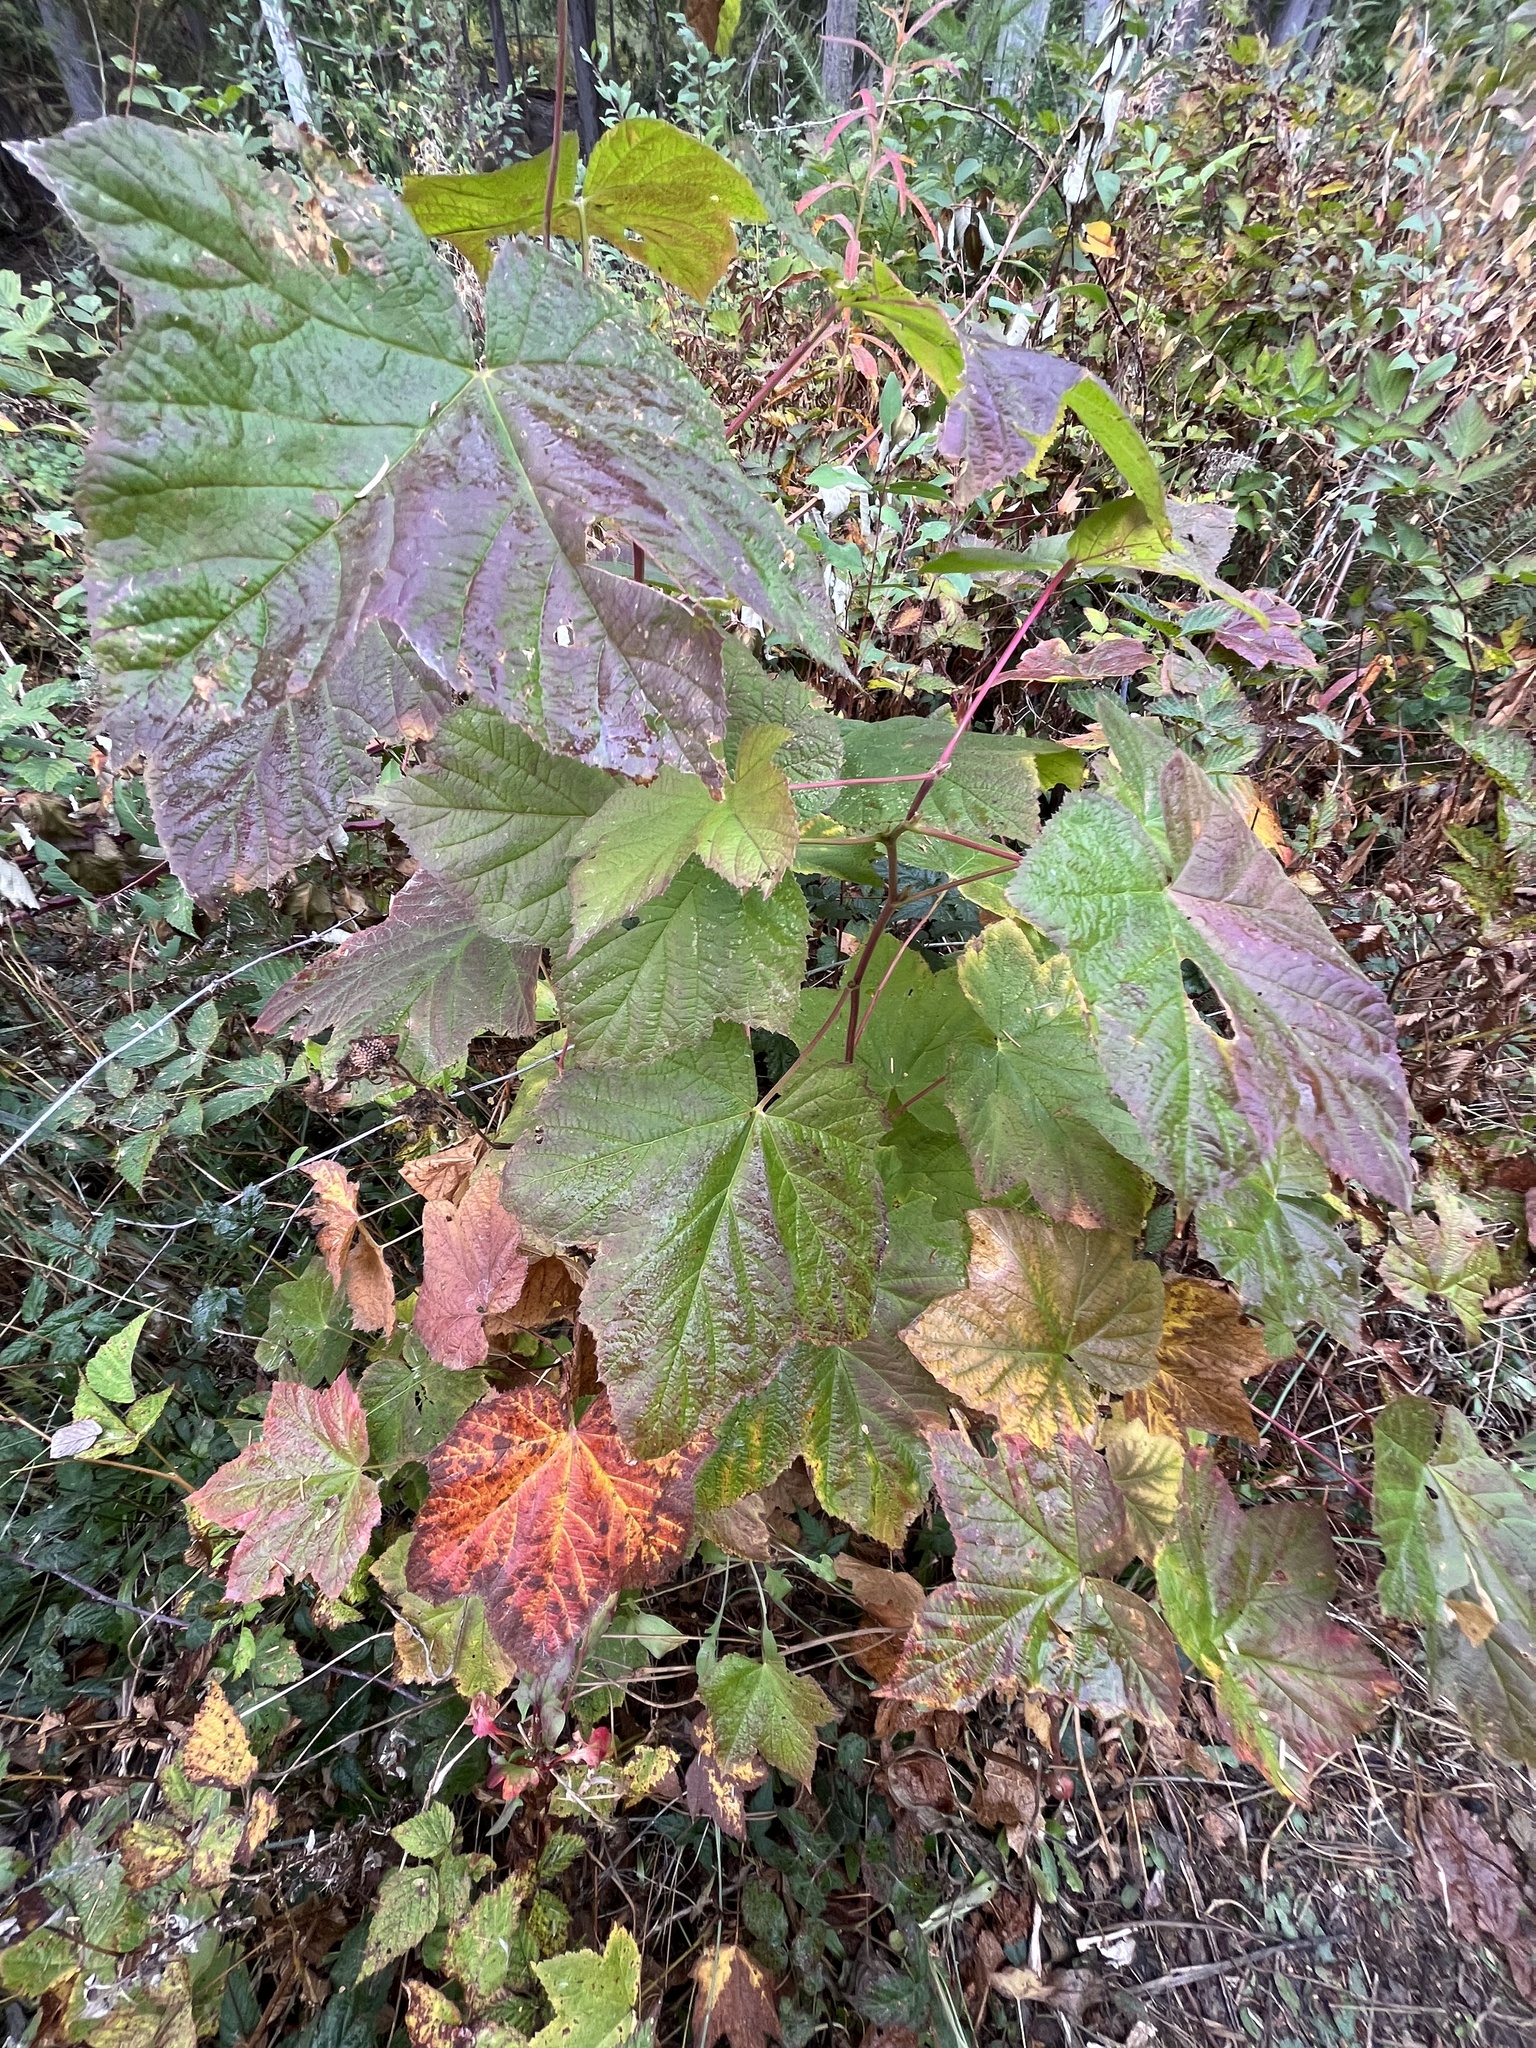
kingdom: Plantae
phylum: Tracheophyta
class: Magnoliopsida
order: Rosales
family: Rosaceae
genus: Rubus
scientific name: Rubus parviflorus
